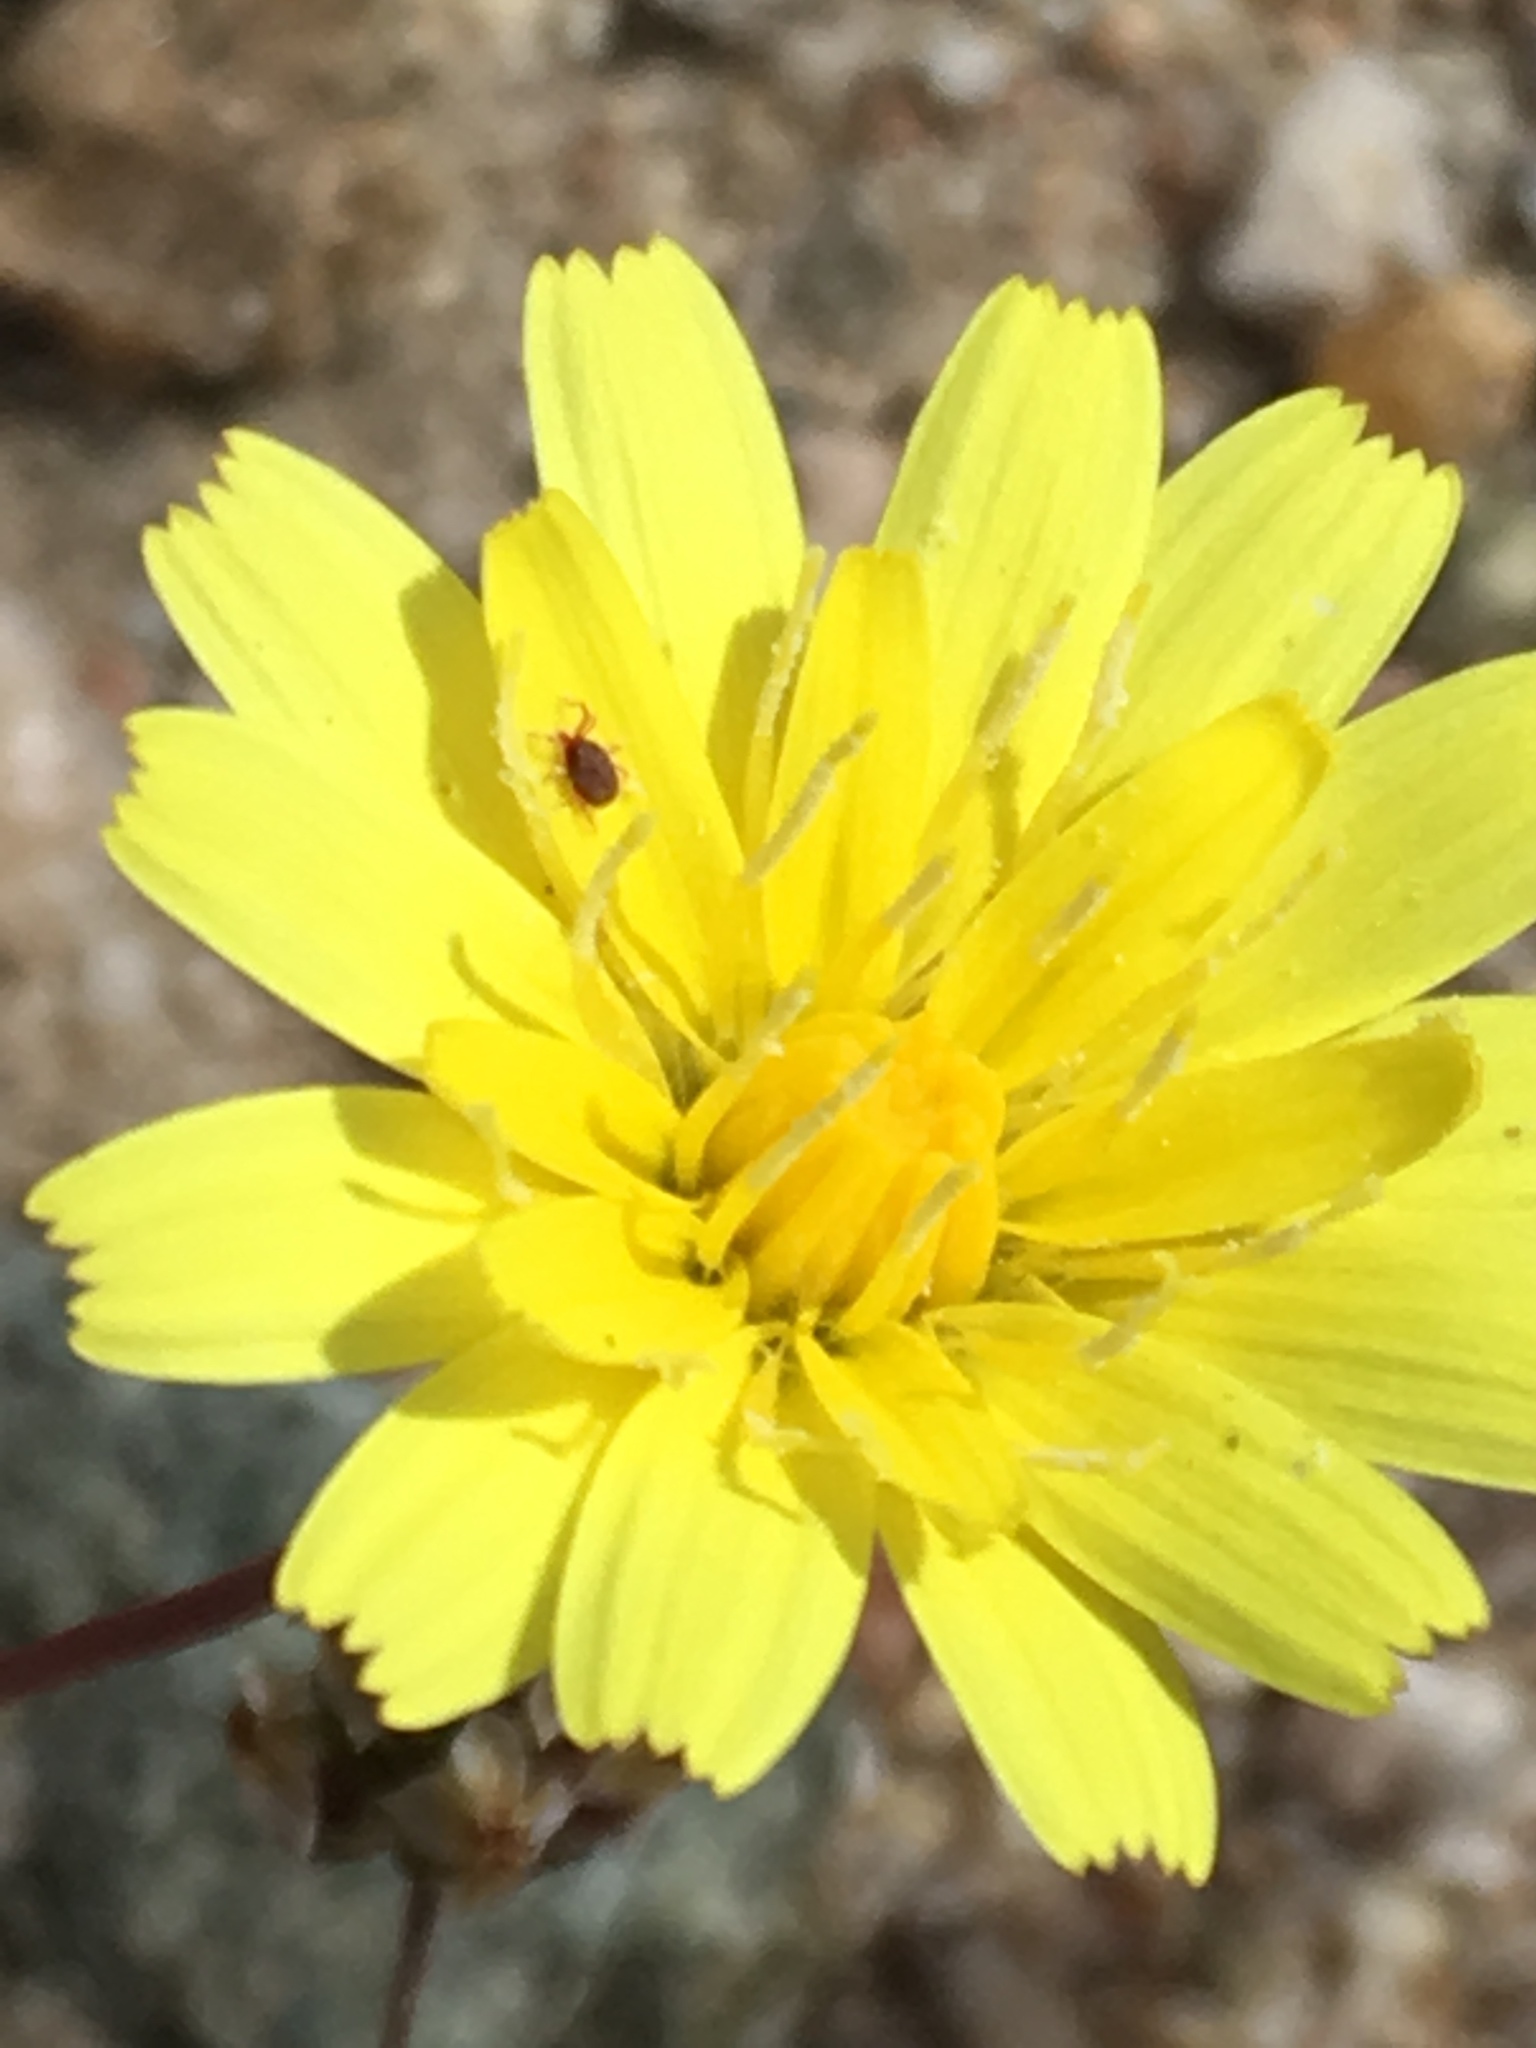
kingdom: Plantae
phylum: Tracheophyta
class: Magnoliopsida
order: Asterales
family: Asteraceae
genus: Malacothrix
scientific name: Malacothrix glabrata
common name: Smooth desert-dandelion
